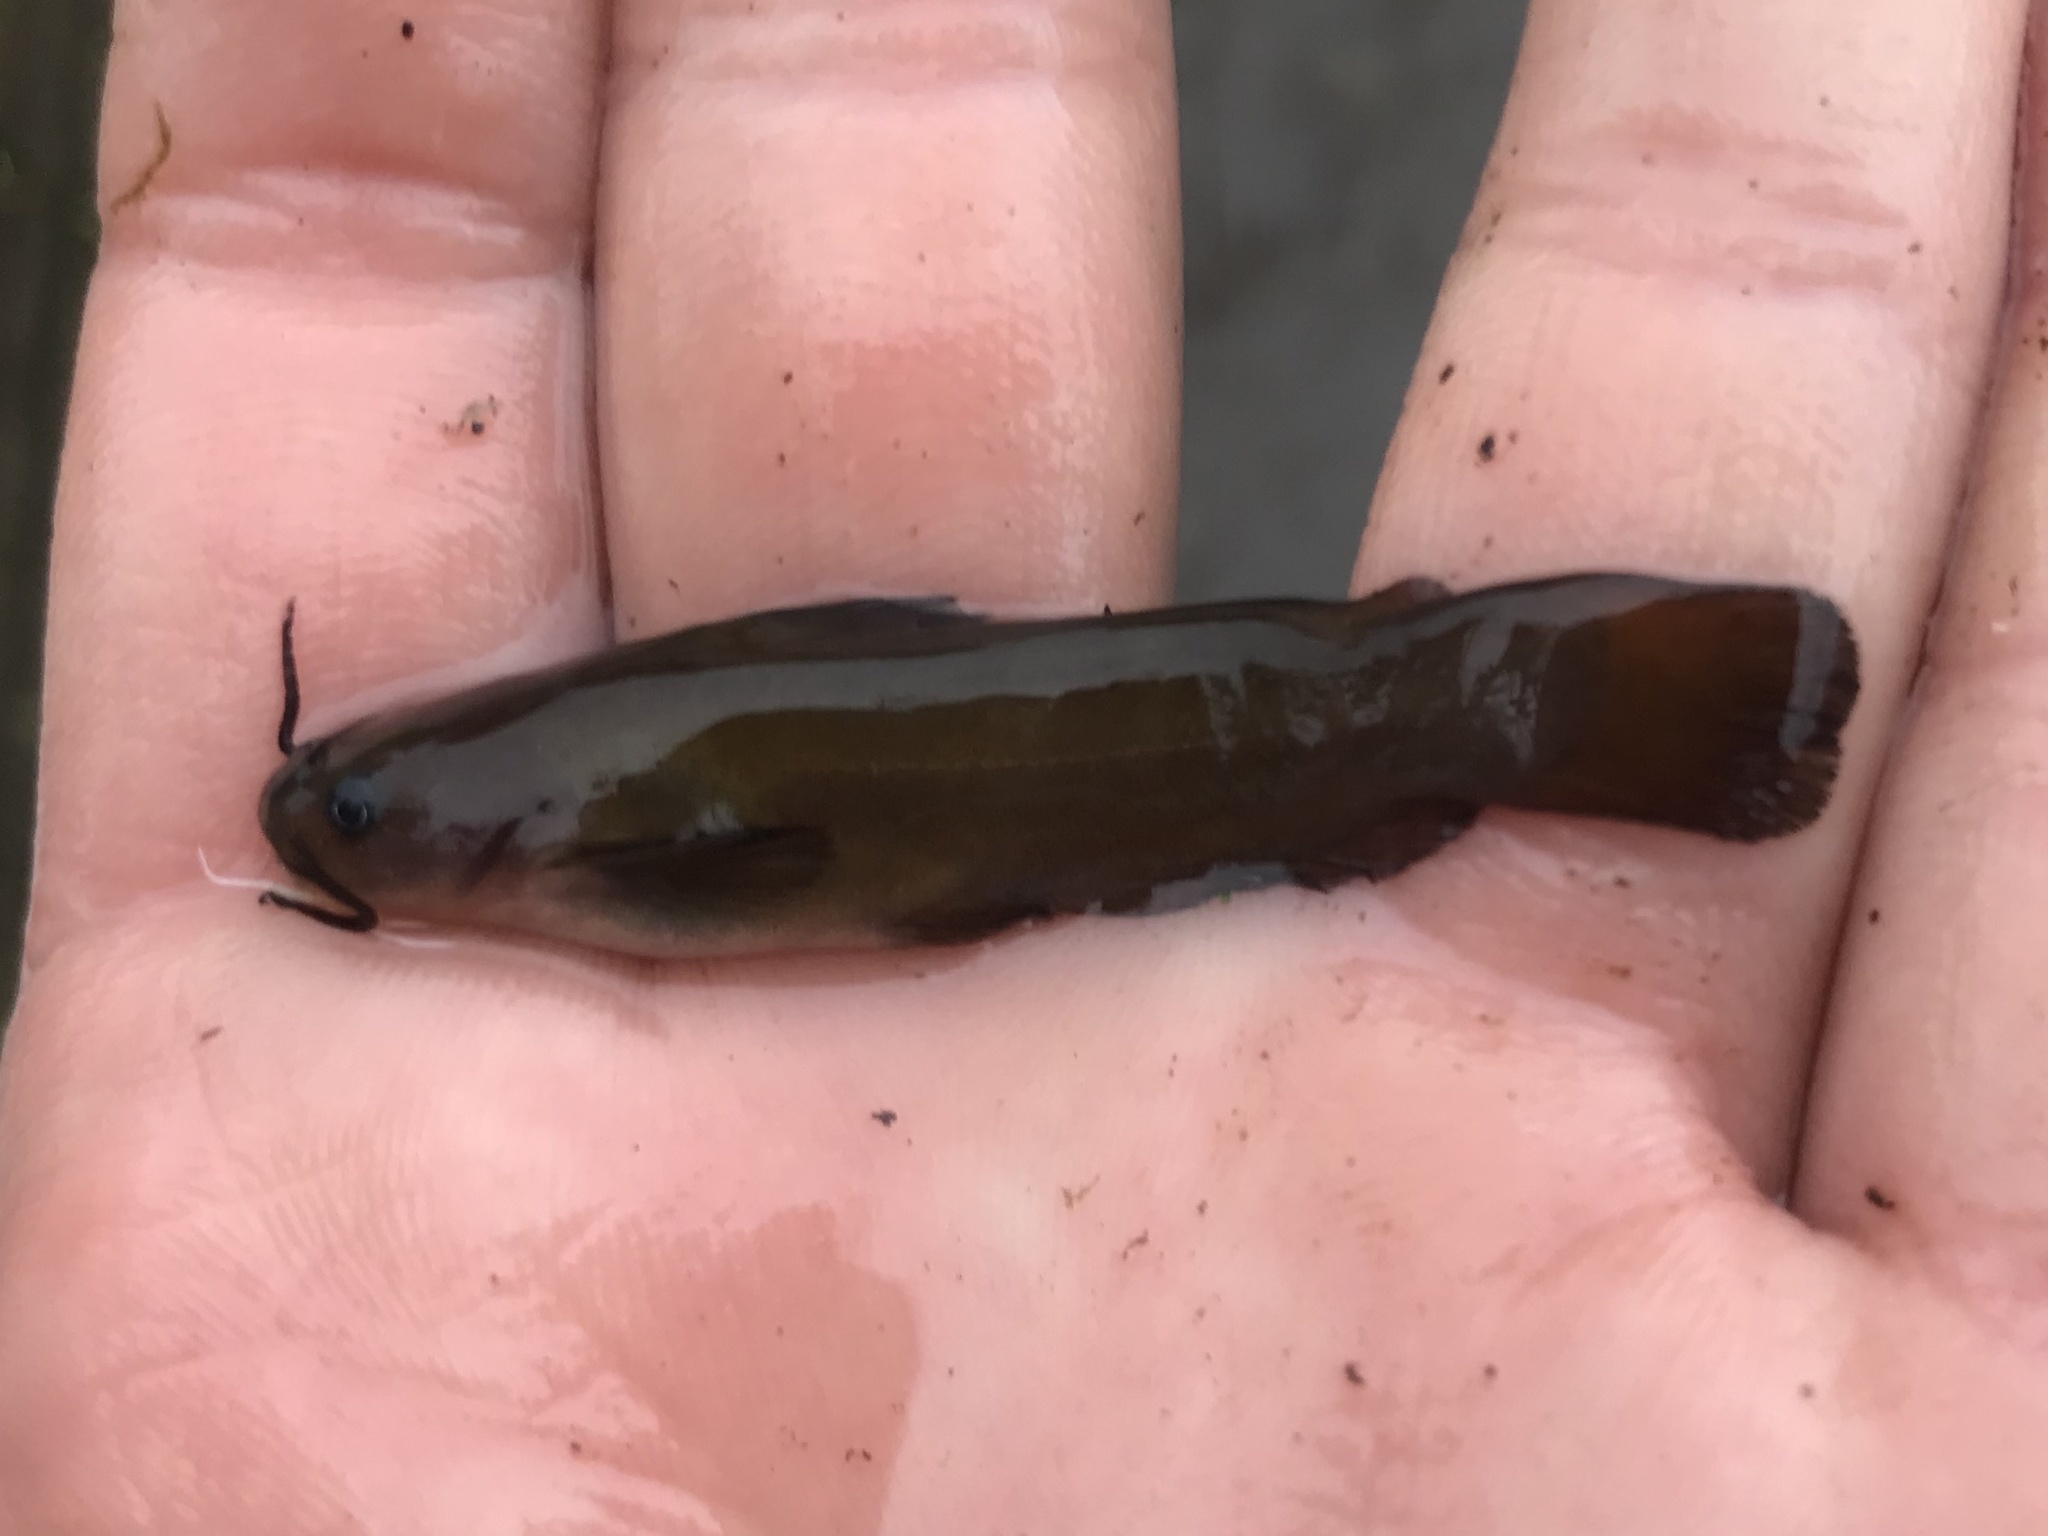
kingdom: Animalia
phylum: Chordata
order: Siluriformes
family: Ictaluridae
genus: Ameiurus
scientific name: Ameiurus natalis
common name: Yellow bullhead
